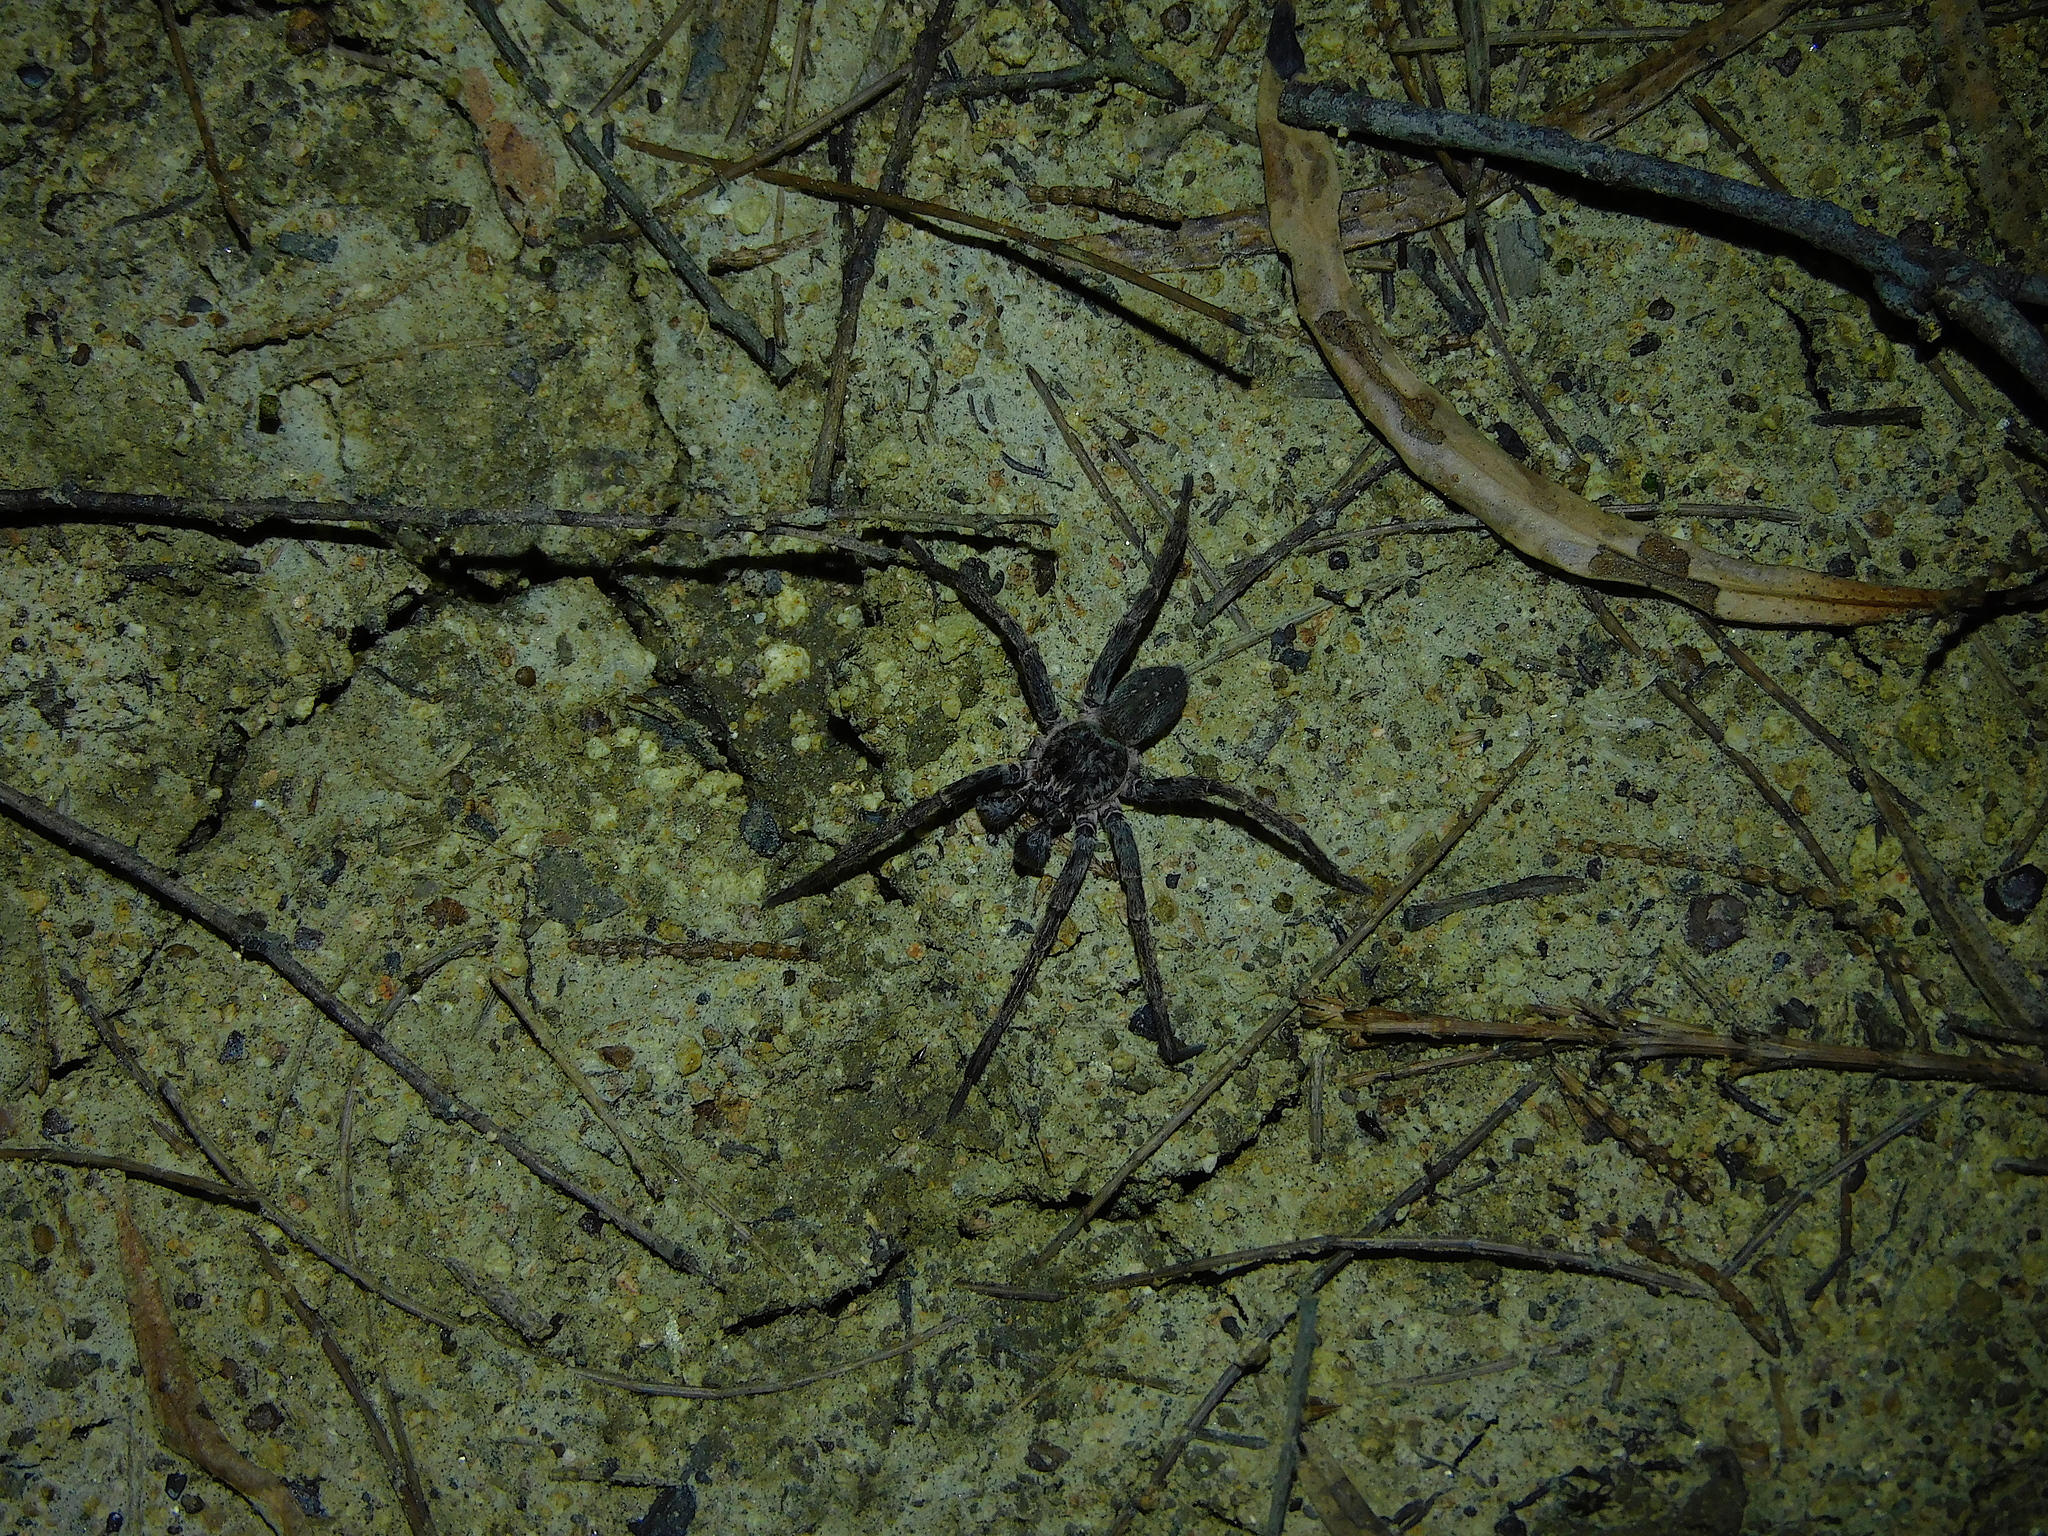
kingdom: Animalia
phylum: Arthropoda
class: Arachnida
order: Araneae
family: Miturgidae
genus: Mituliodon
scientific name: Mituliodon tarantulinus
